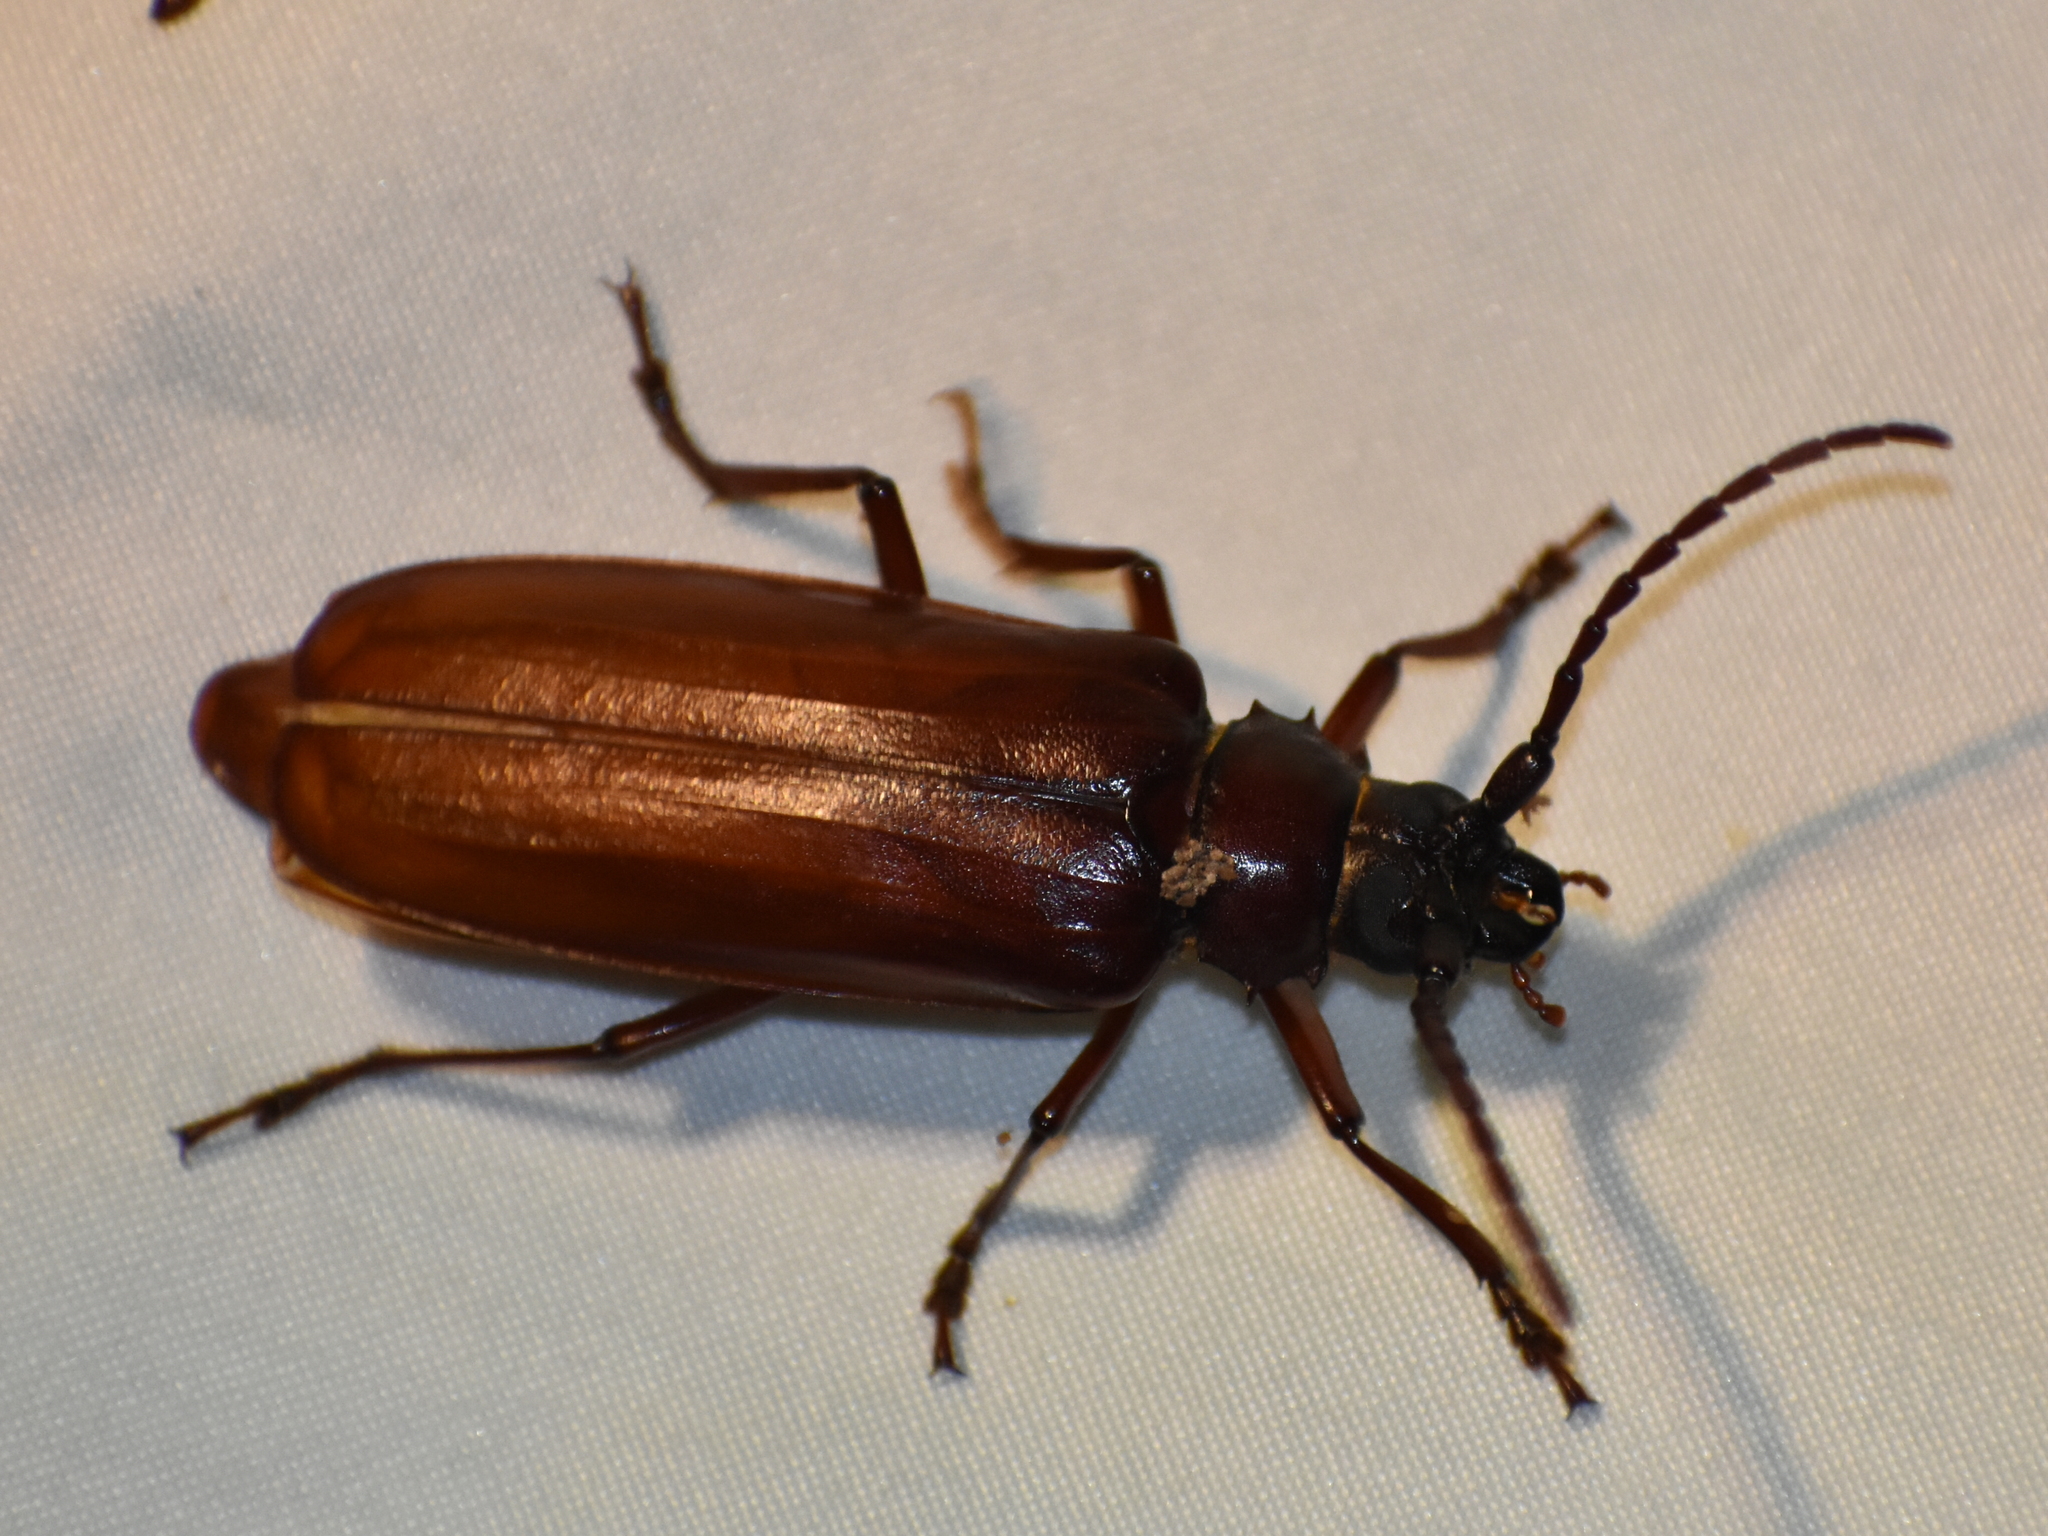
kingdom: Animalia
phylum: Arthropoda
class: Insecta
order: Coleoptera
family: Cerambycidae
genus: Orthosoma
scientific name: Orthosoma brunneum
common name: Brown prionid beetle
